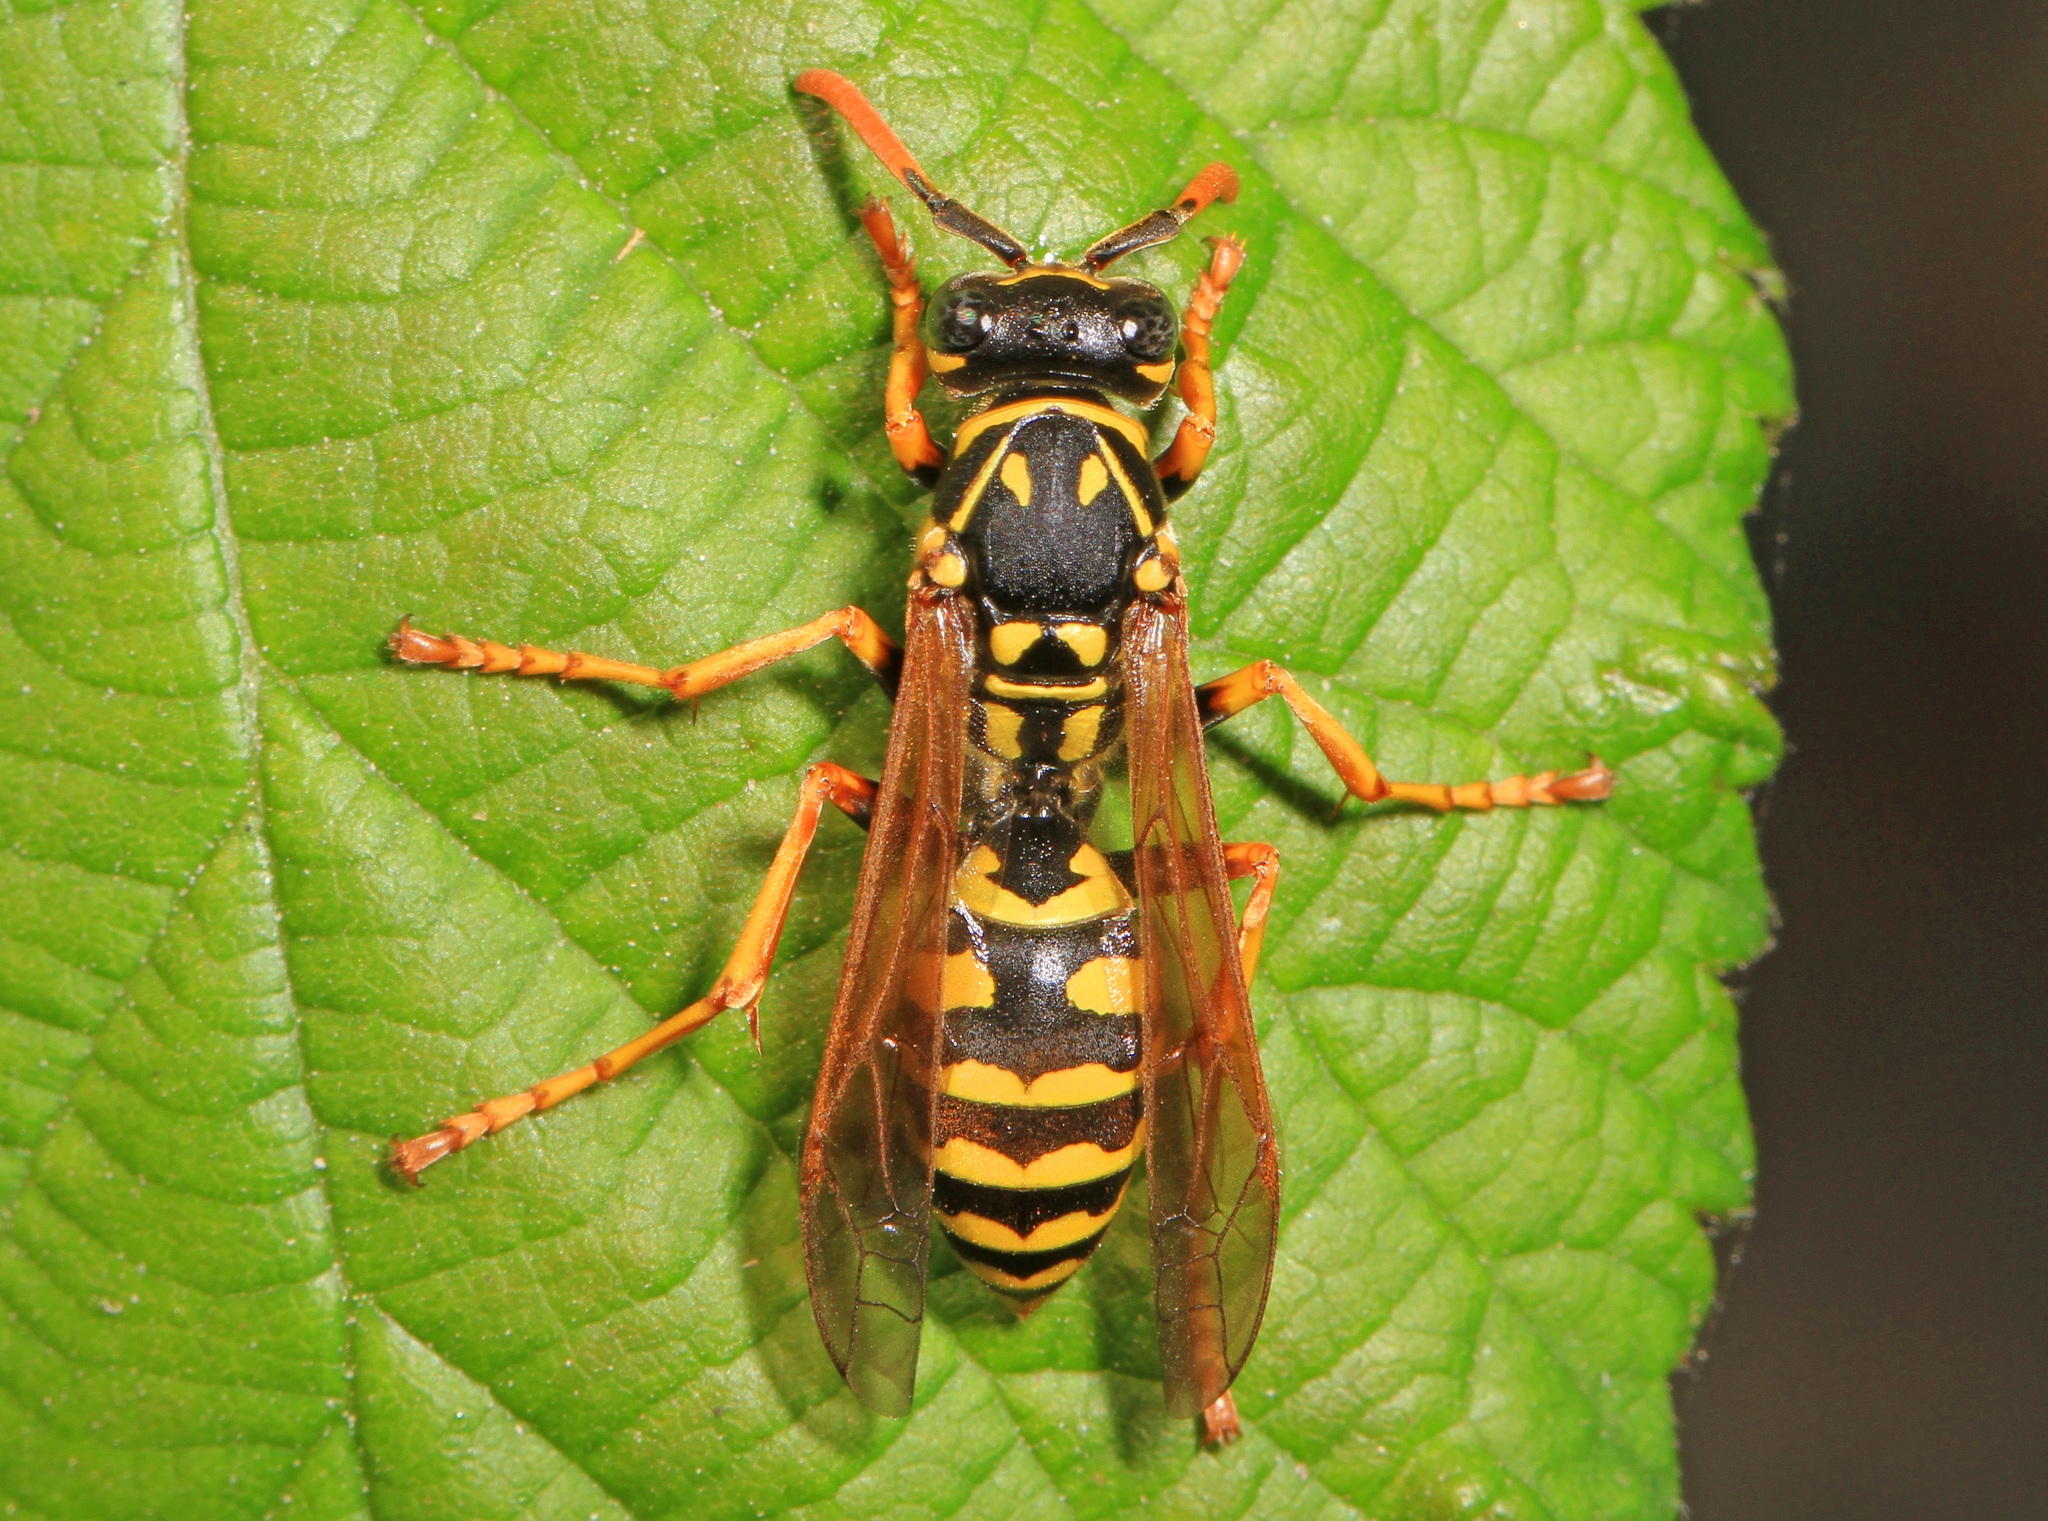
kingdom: Animalia
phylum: Arthropoda
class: Insecta
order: Hymenoptera
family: Eumenidae
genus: Polistes
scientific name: Polistes dominula
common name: Paper wasp
